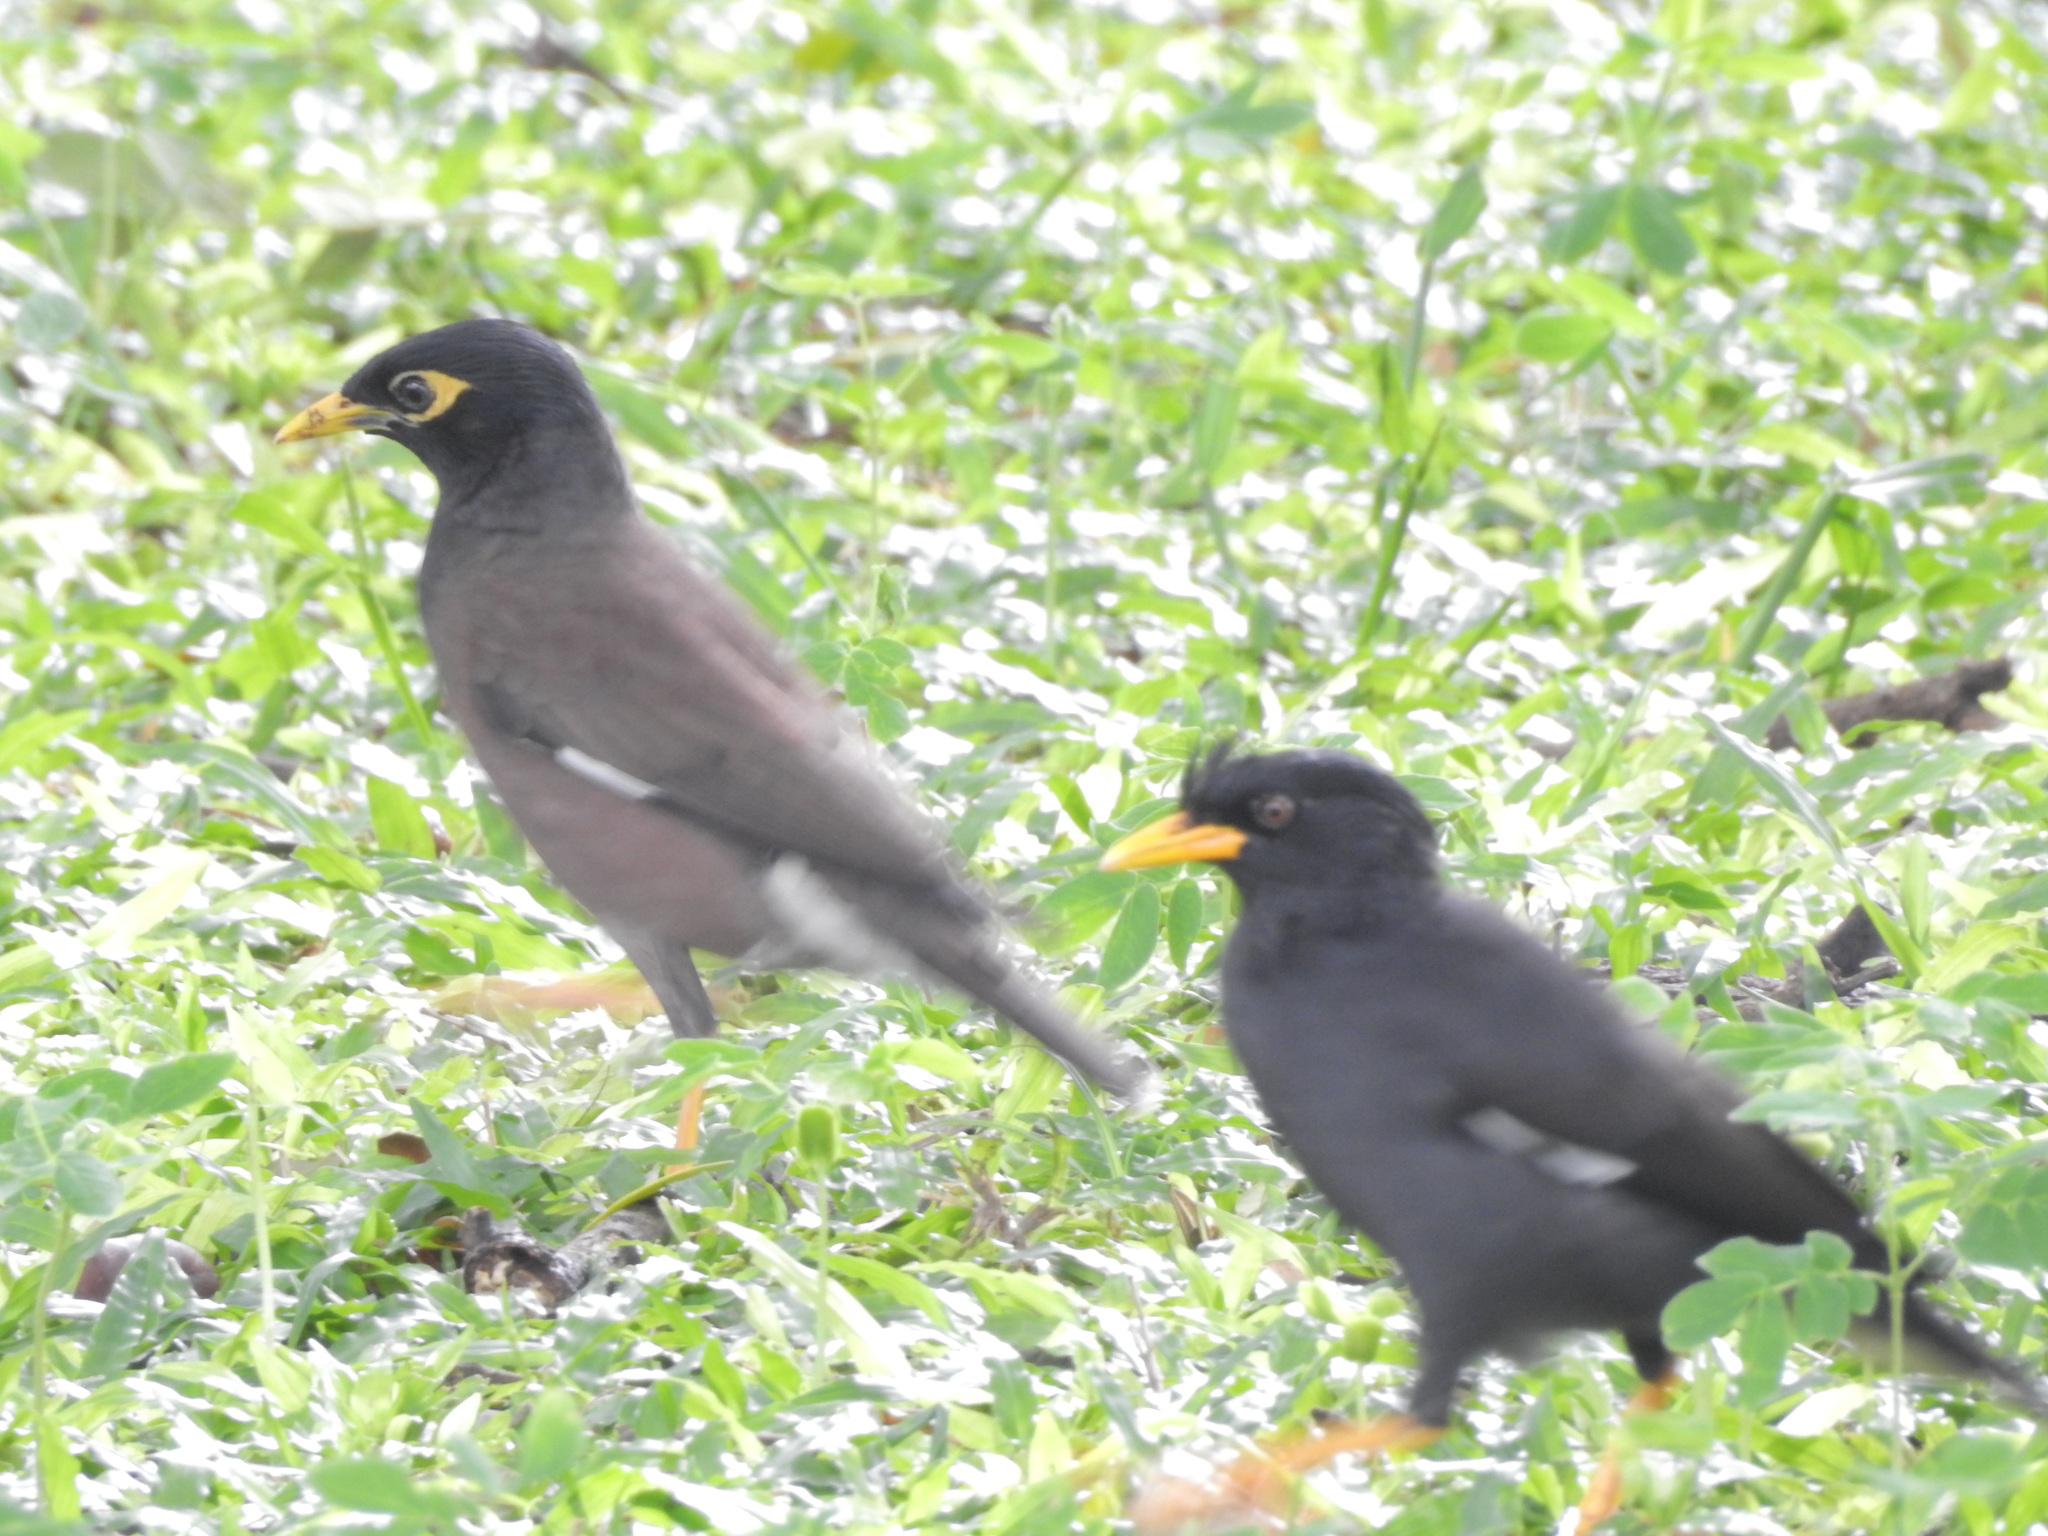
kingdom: Animalia
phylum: Chordata
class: Aves
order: Passeriformes
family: Sturnidae
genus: Acridotheres
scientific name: Acridotheres grandis
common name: Great myna
